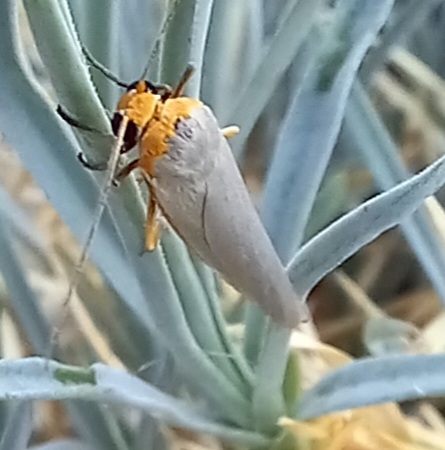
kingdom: Animalia
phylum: Arthropoda
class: Insecta
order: Lepidoptera
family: Erebidae
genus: Eilema
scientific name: Eilema caniola
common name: Hoary footman
